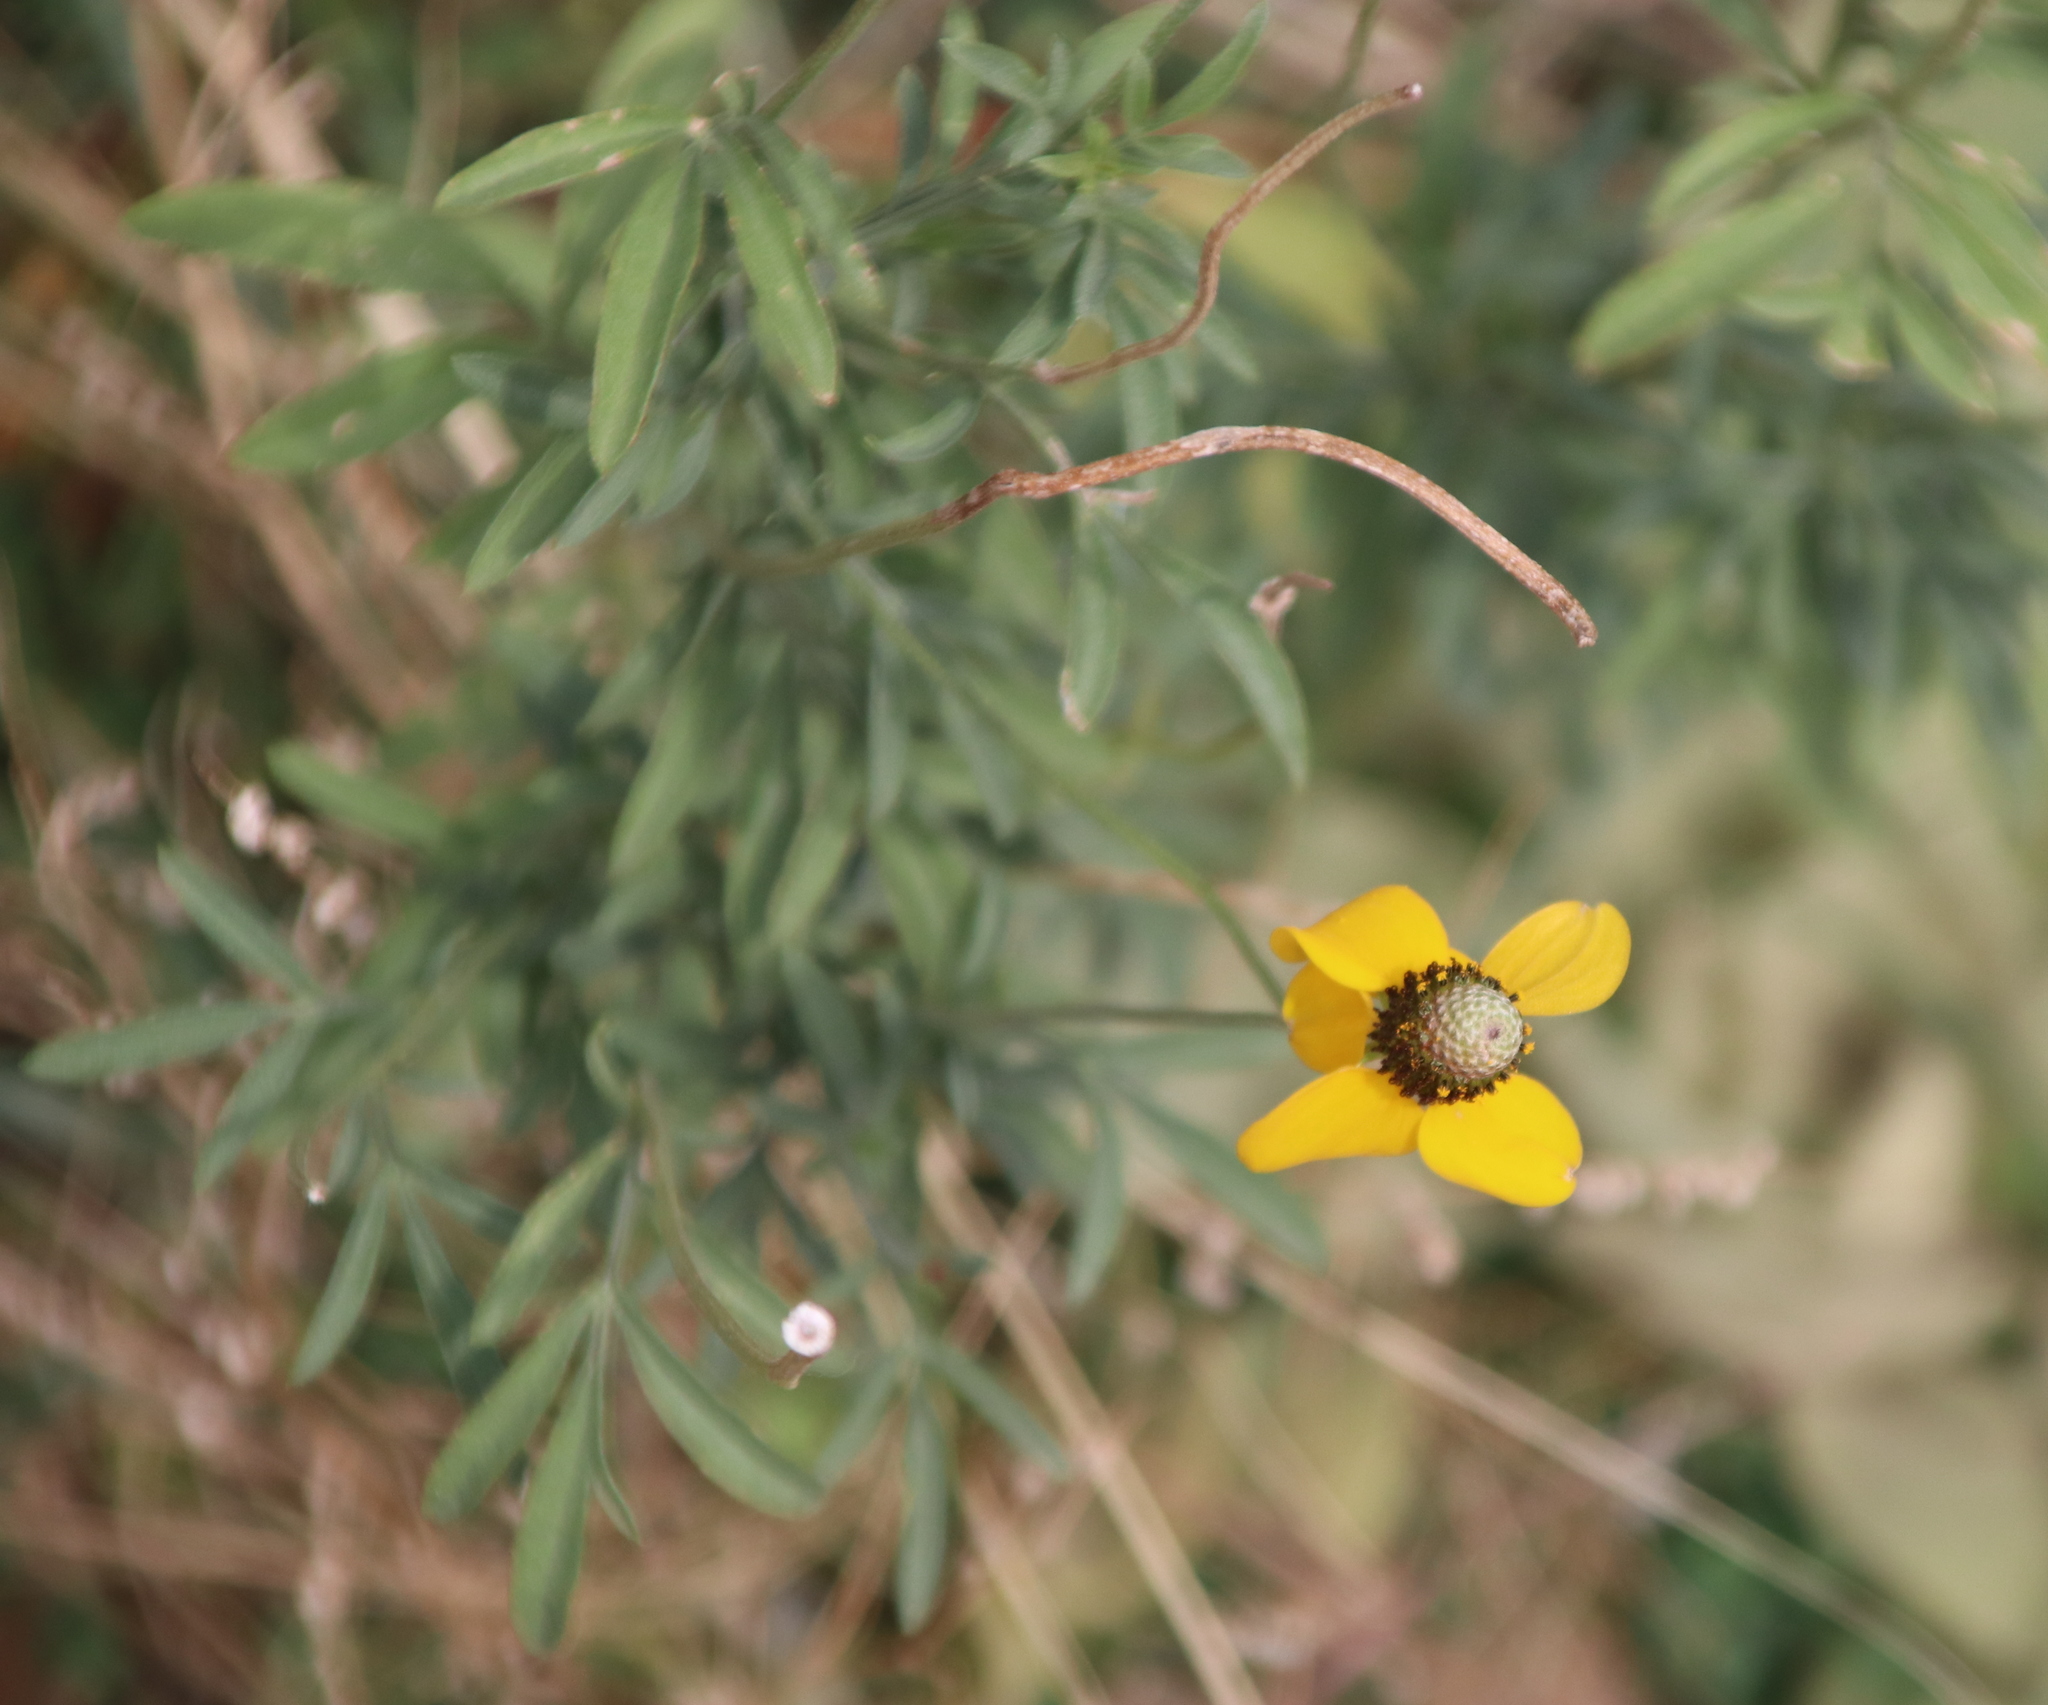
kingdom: Plantae
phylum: Tracheophyta
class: Magnoliopsida
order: Asterales
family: Asteraceae
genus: Ratibida
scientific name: Ratibida columnifera
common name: Prairie coneflower
